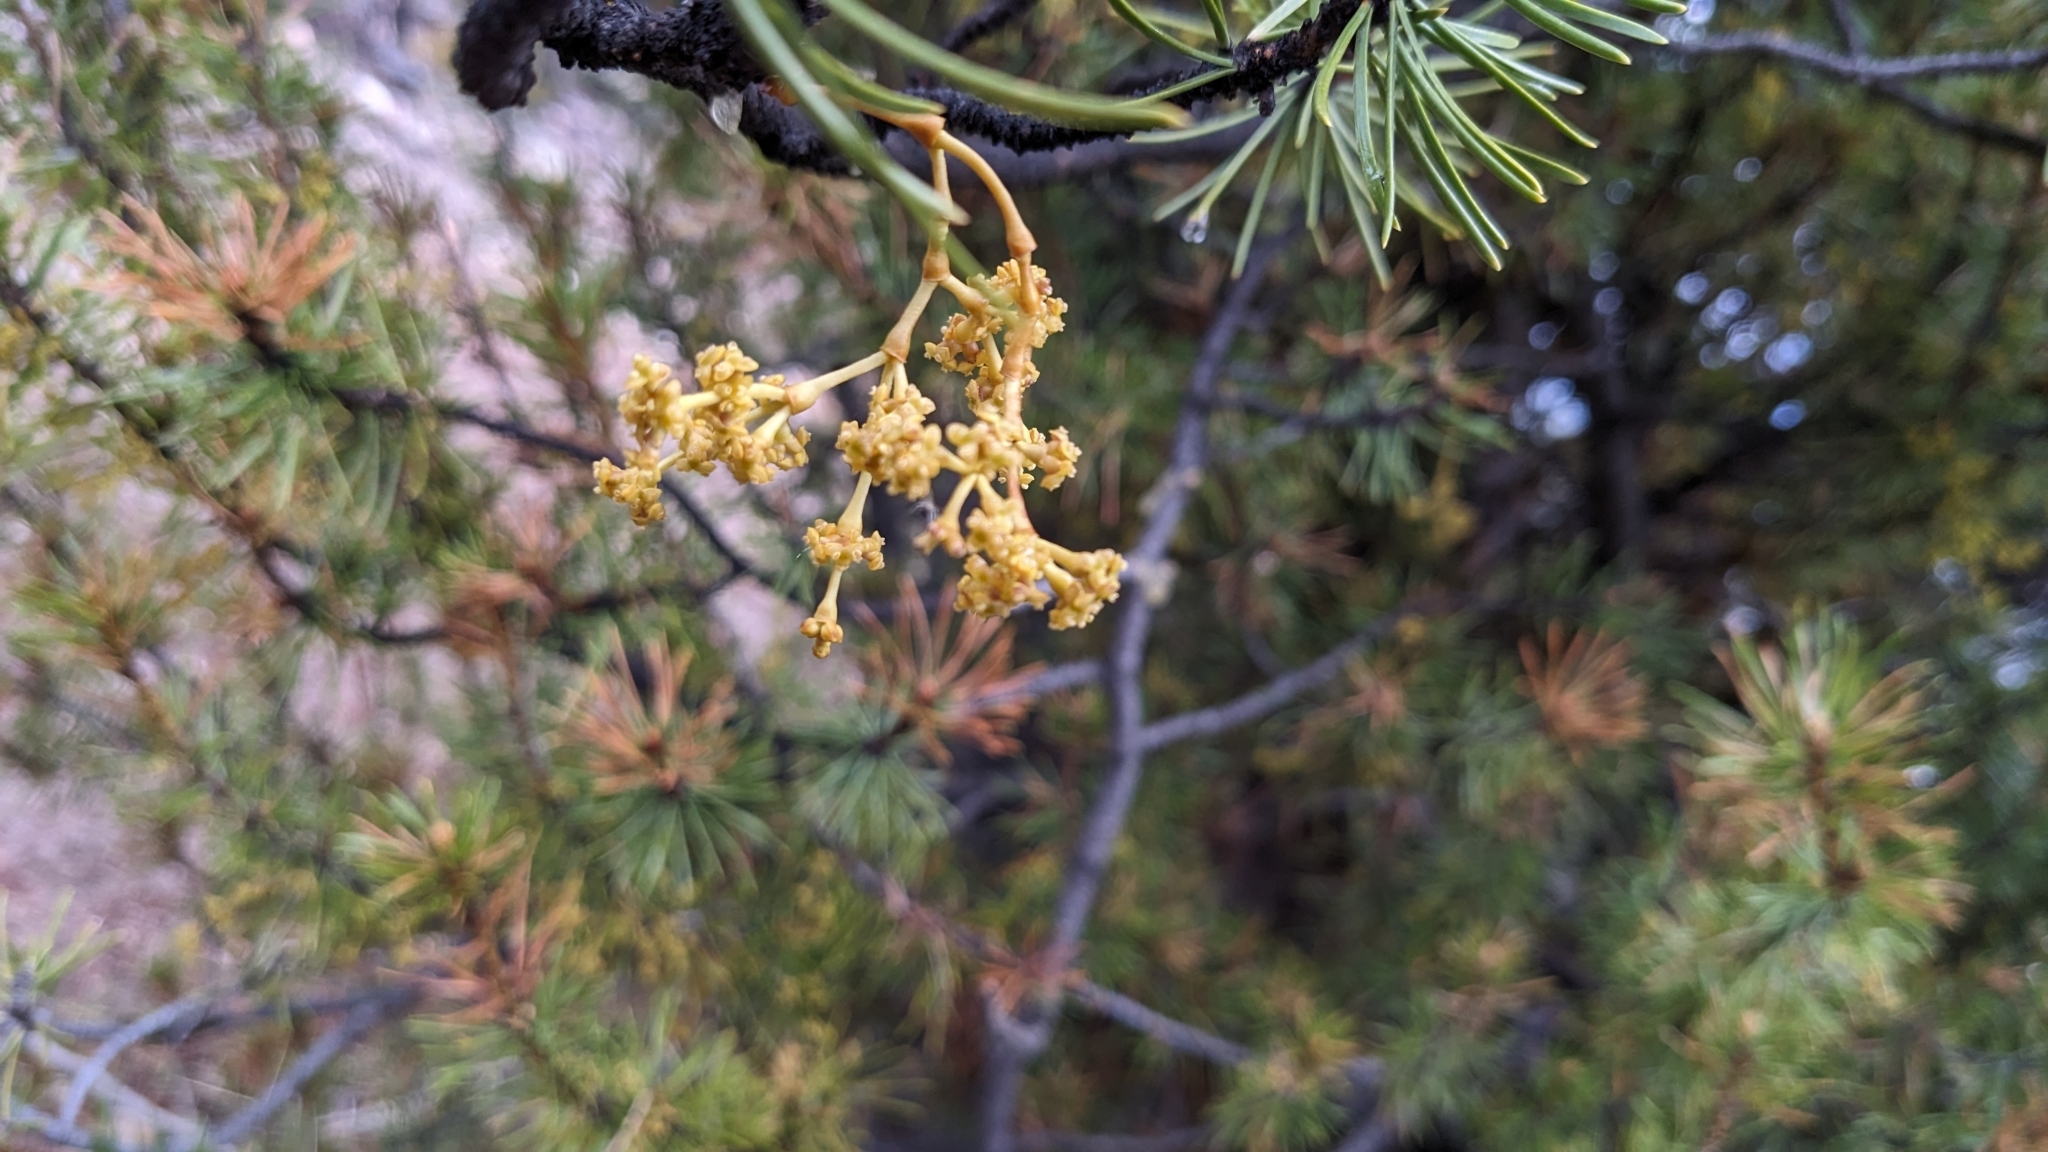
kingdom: Plantae
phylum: Tracheophyta
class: Magnoliopsida
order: Santalales
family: Viscaceae
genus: Arceuthobium
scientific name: Arceuthobium americanum
